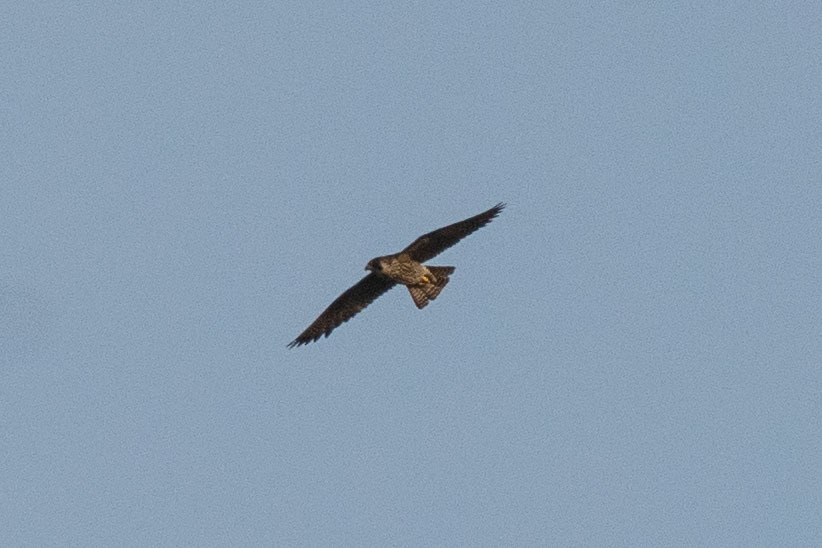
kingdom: Animalia
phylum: Chordata
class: Aves
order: Falconiformes
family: Falconidae
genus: Falco
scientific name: Falco peregrinus
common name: Peregrine falcon
